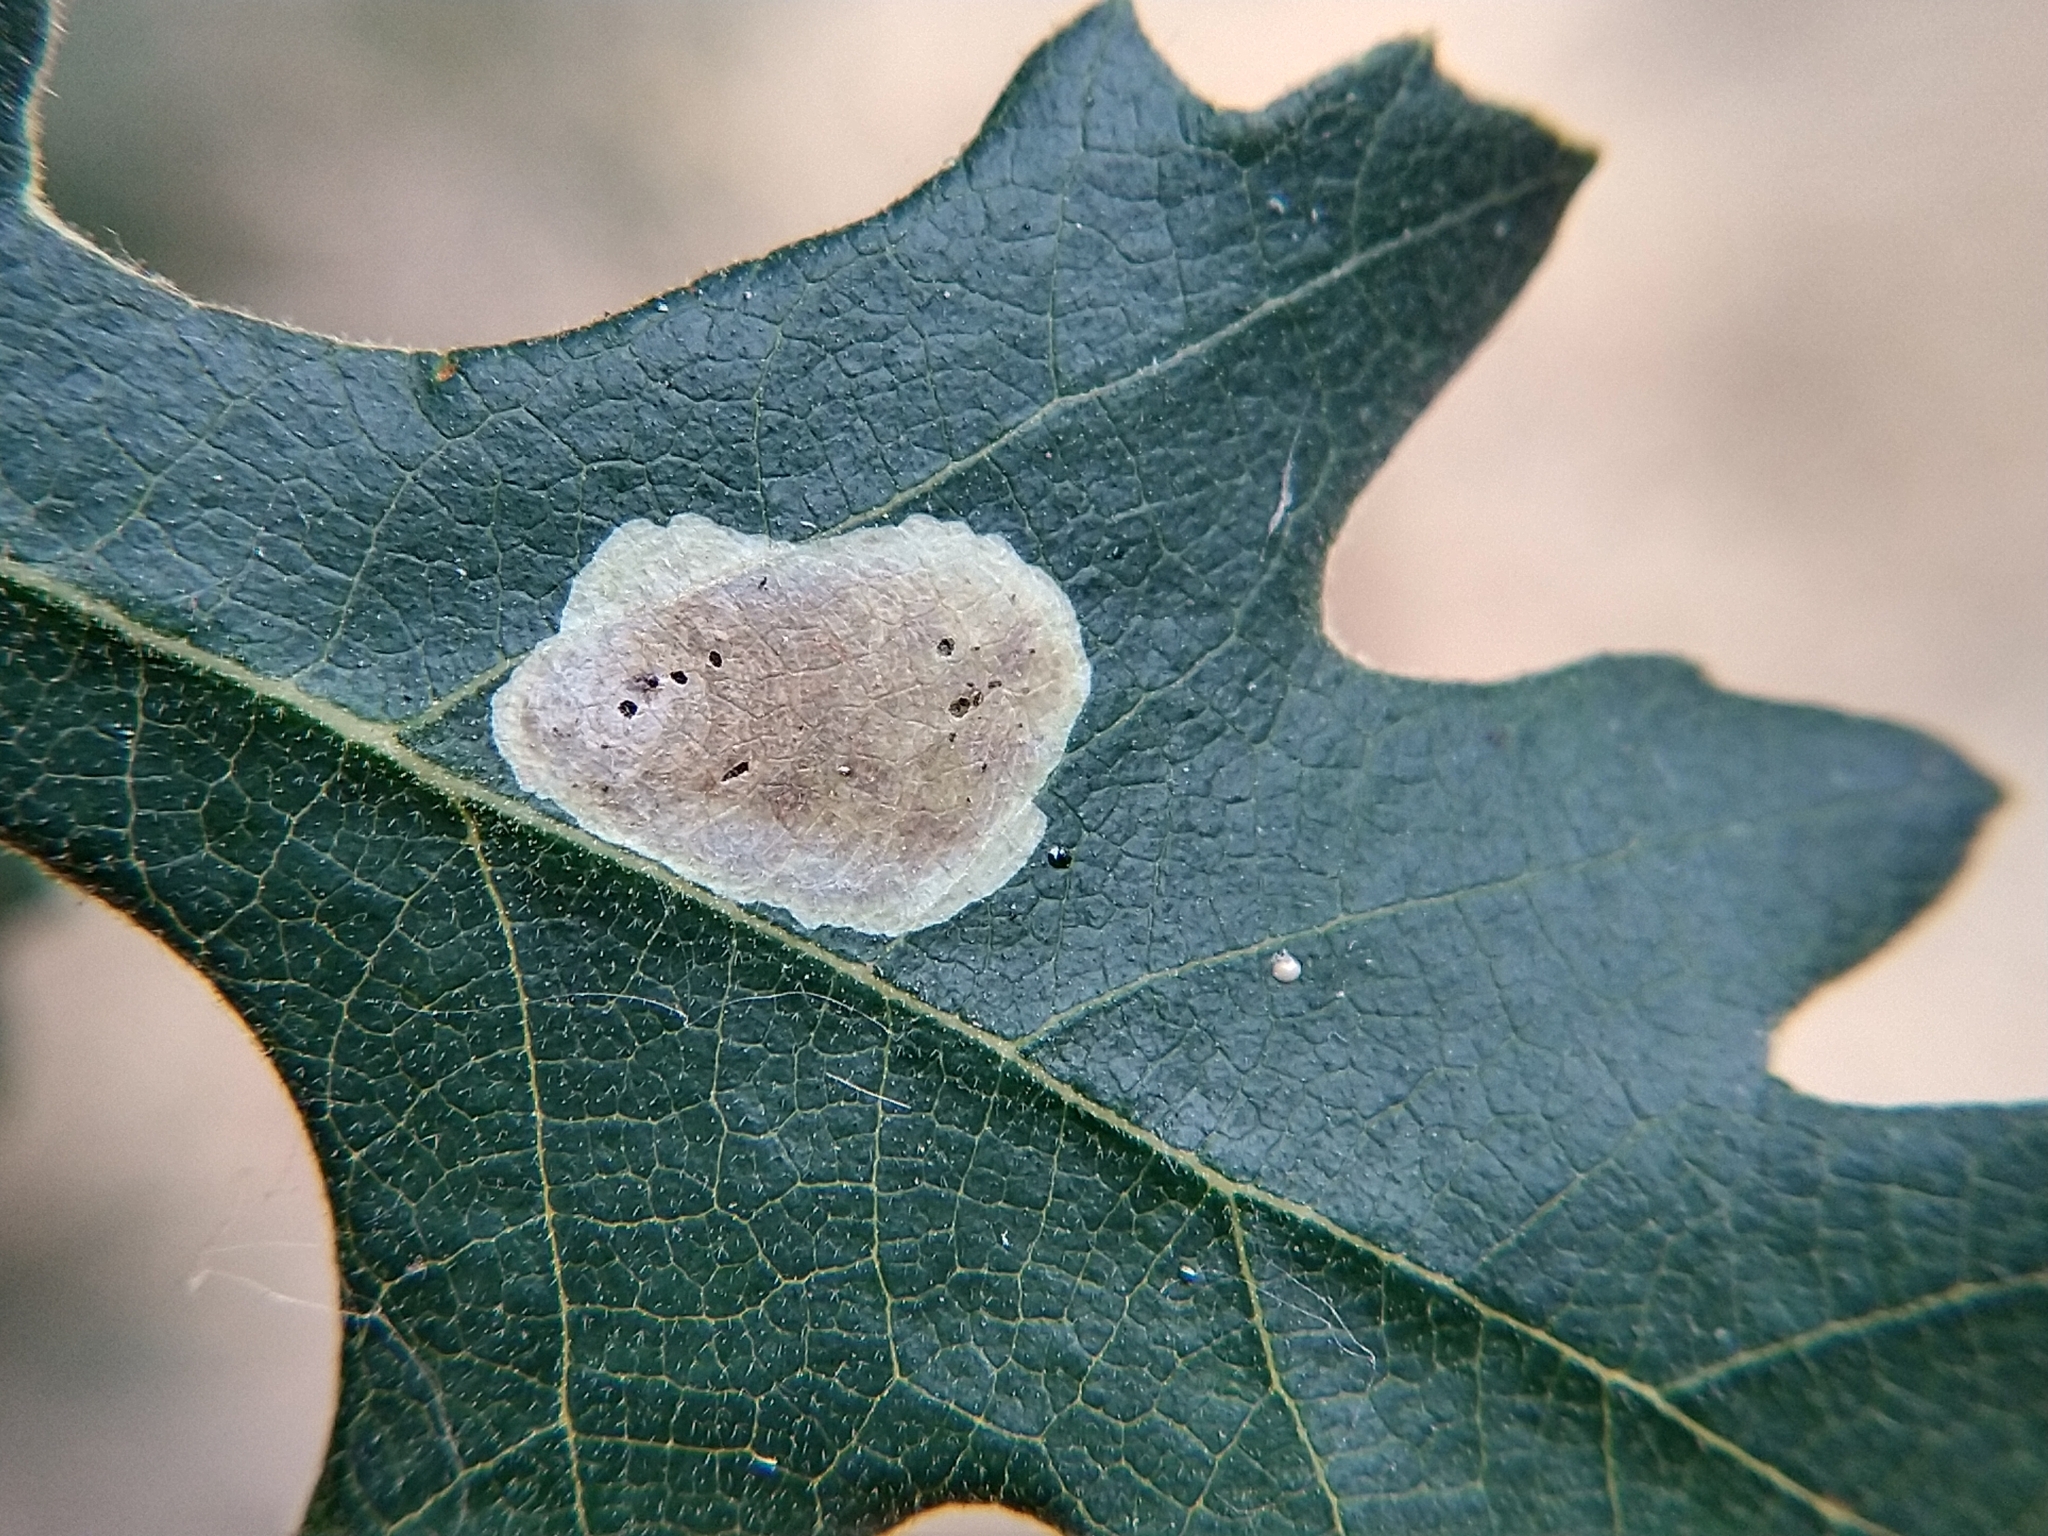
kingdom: Animalia
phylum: Arthropoda
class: Insecta
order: Lepidoptera
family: Gracillariidae
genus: Cameraria
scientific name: Cameraria
